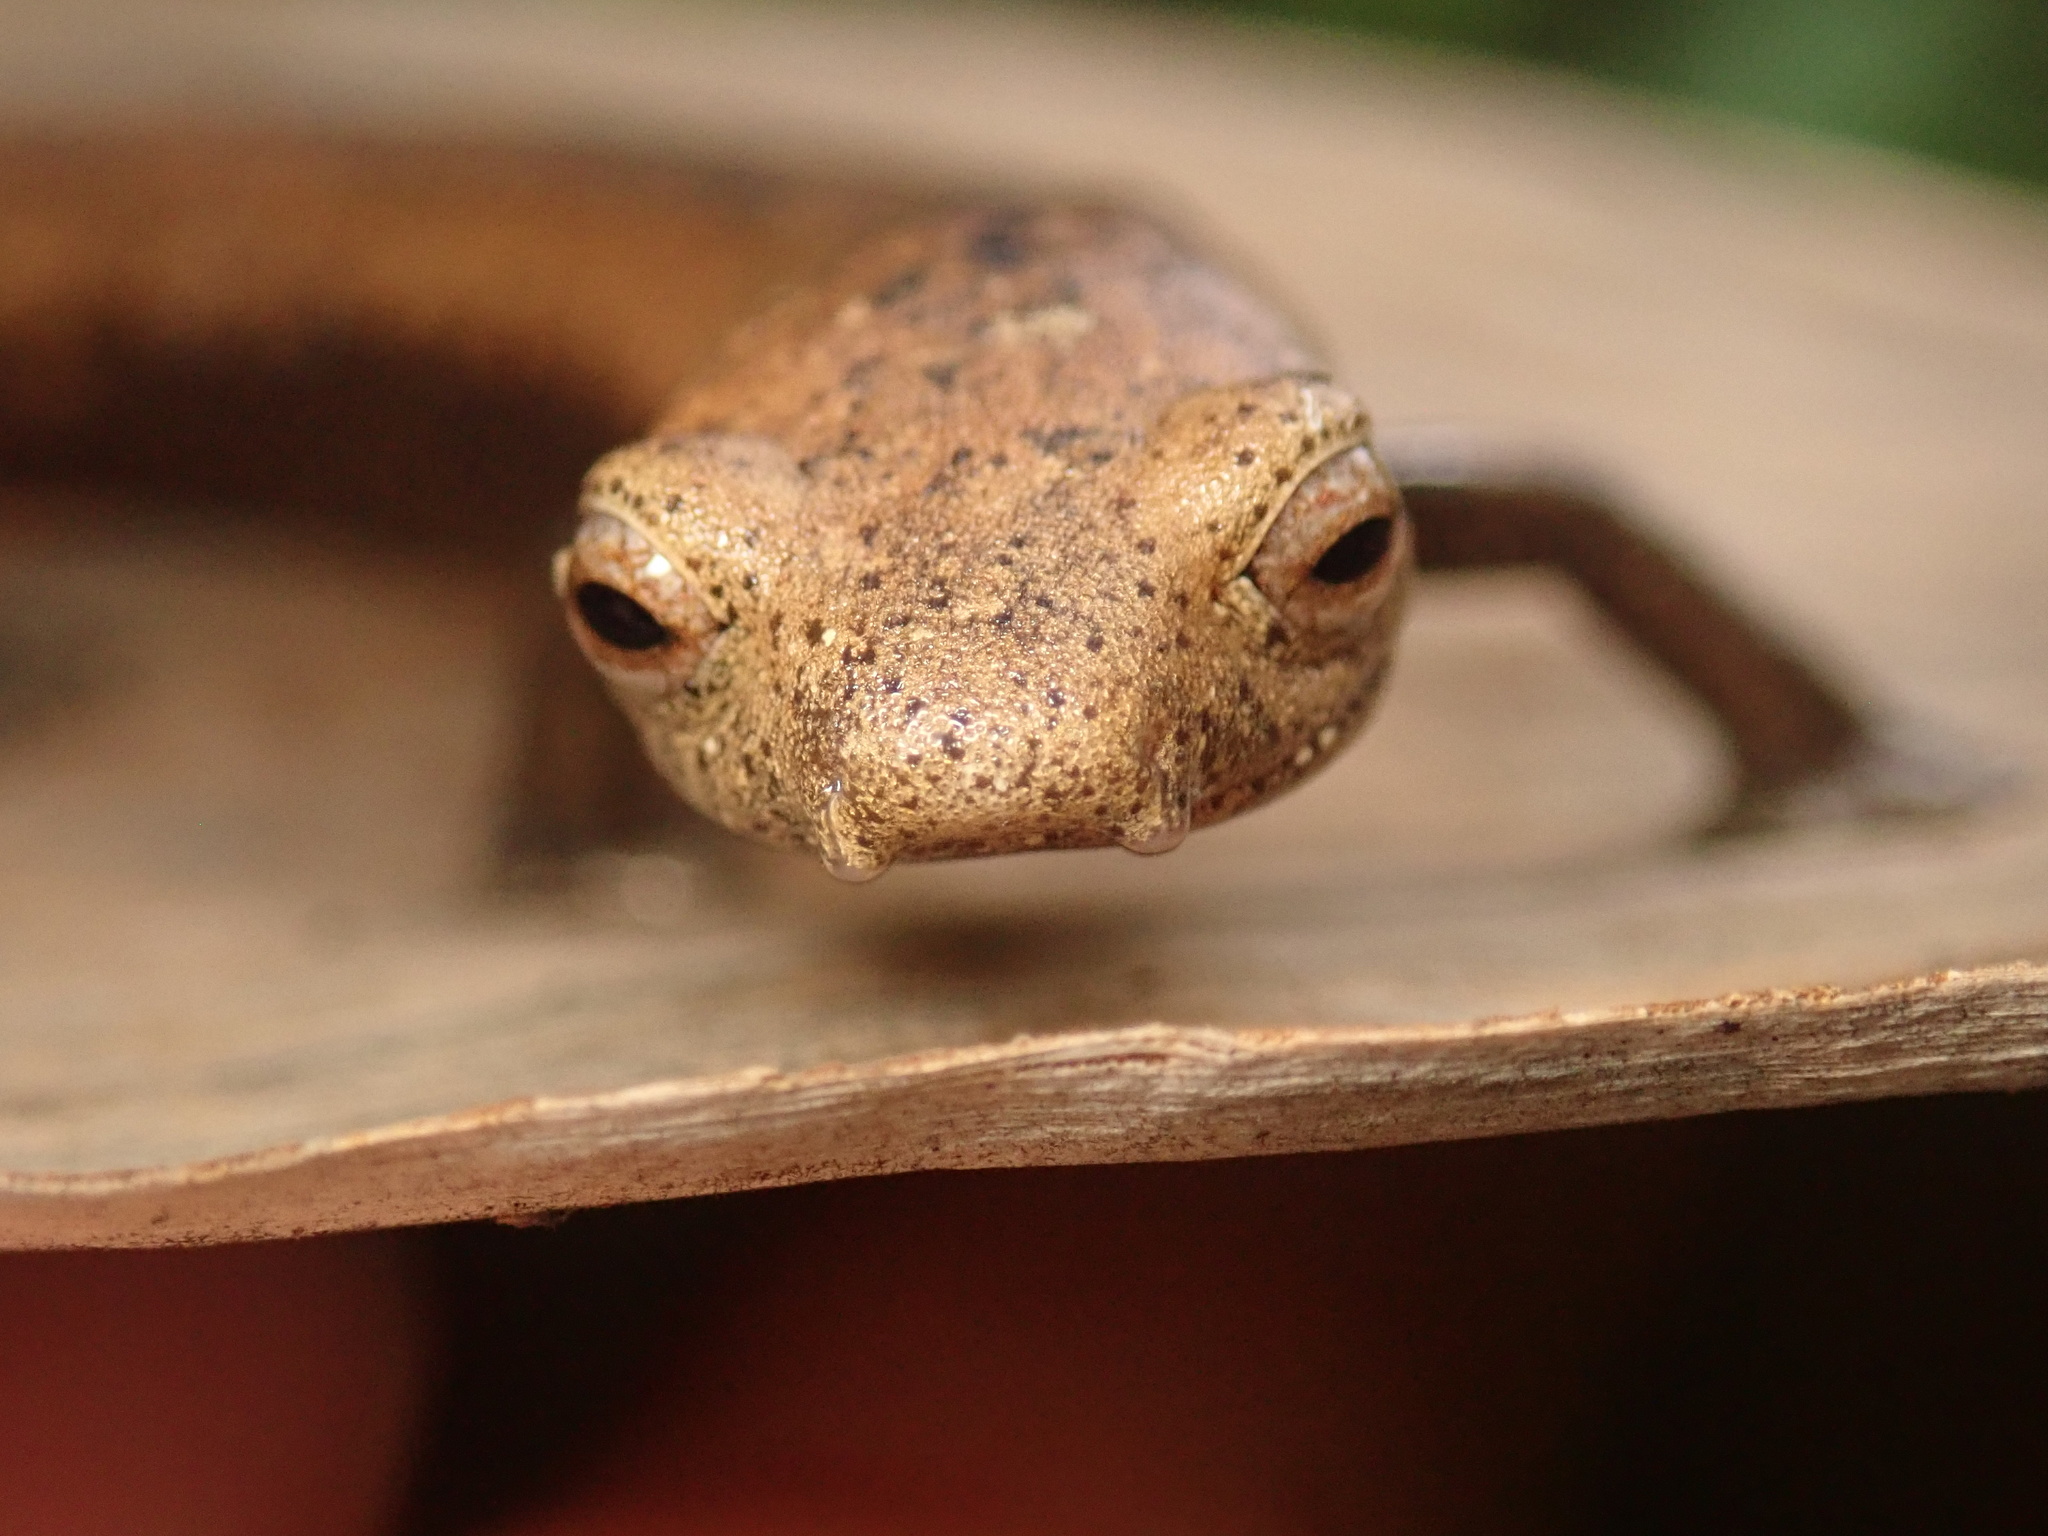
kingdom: Animalia
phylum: Chordata
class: Amphibia
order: Caudata
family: Plethodontidae
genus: Bolitoglossa
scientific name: Bolitoglossa lignicolor
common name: Camron mushroomtongue salamander
